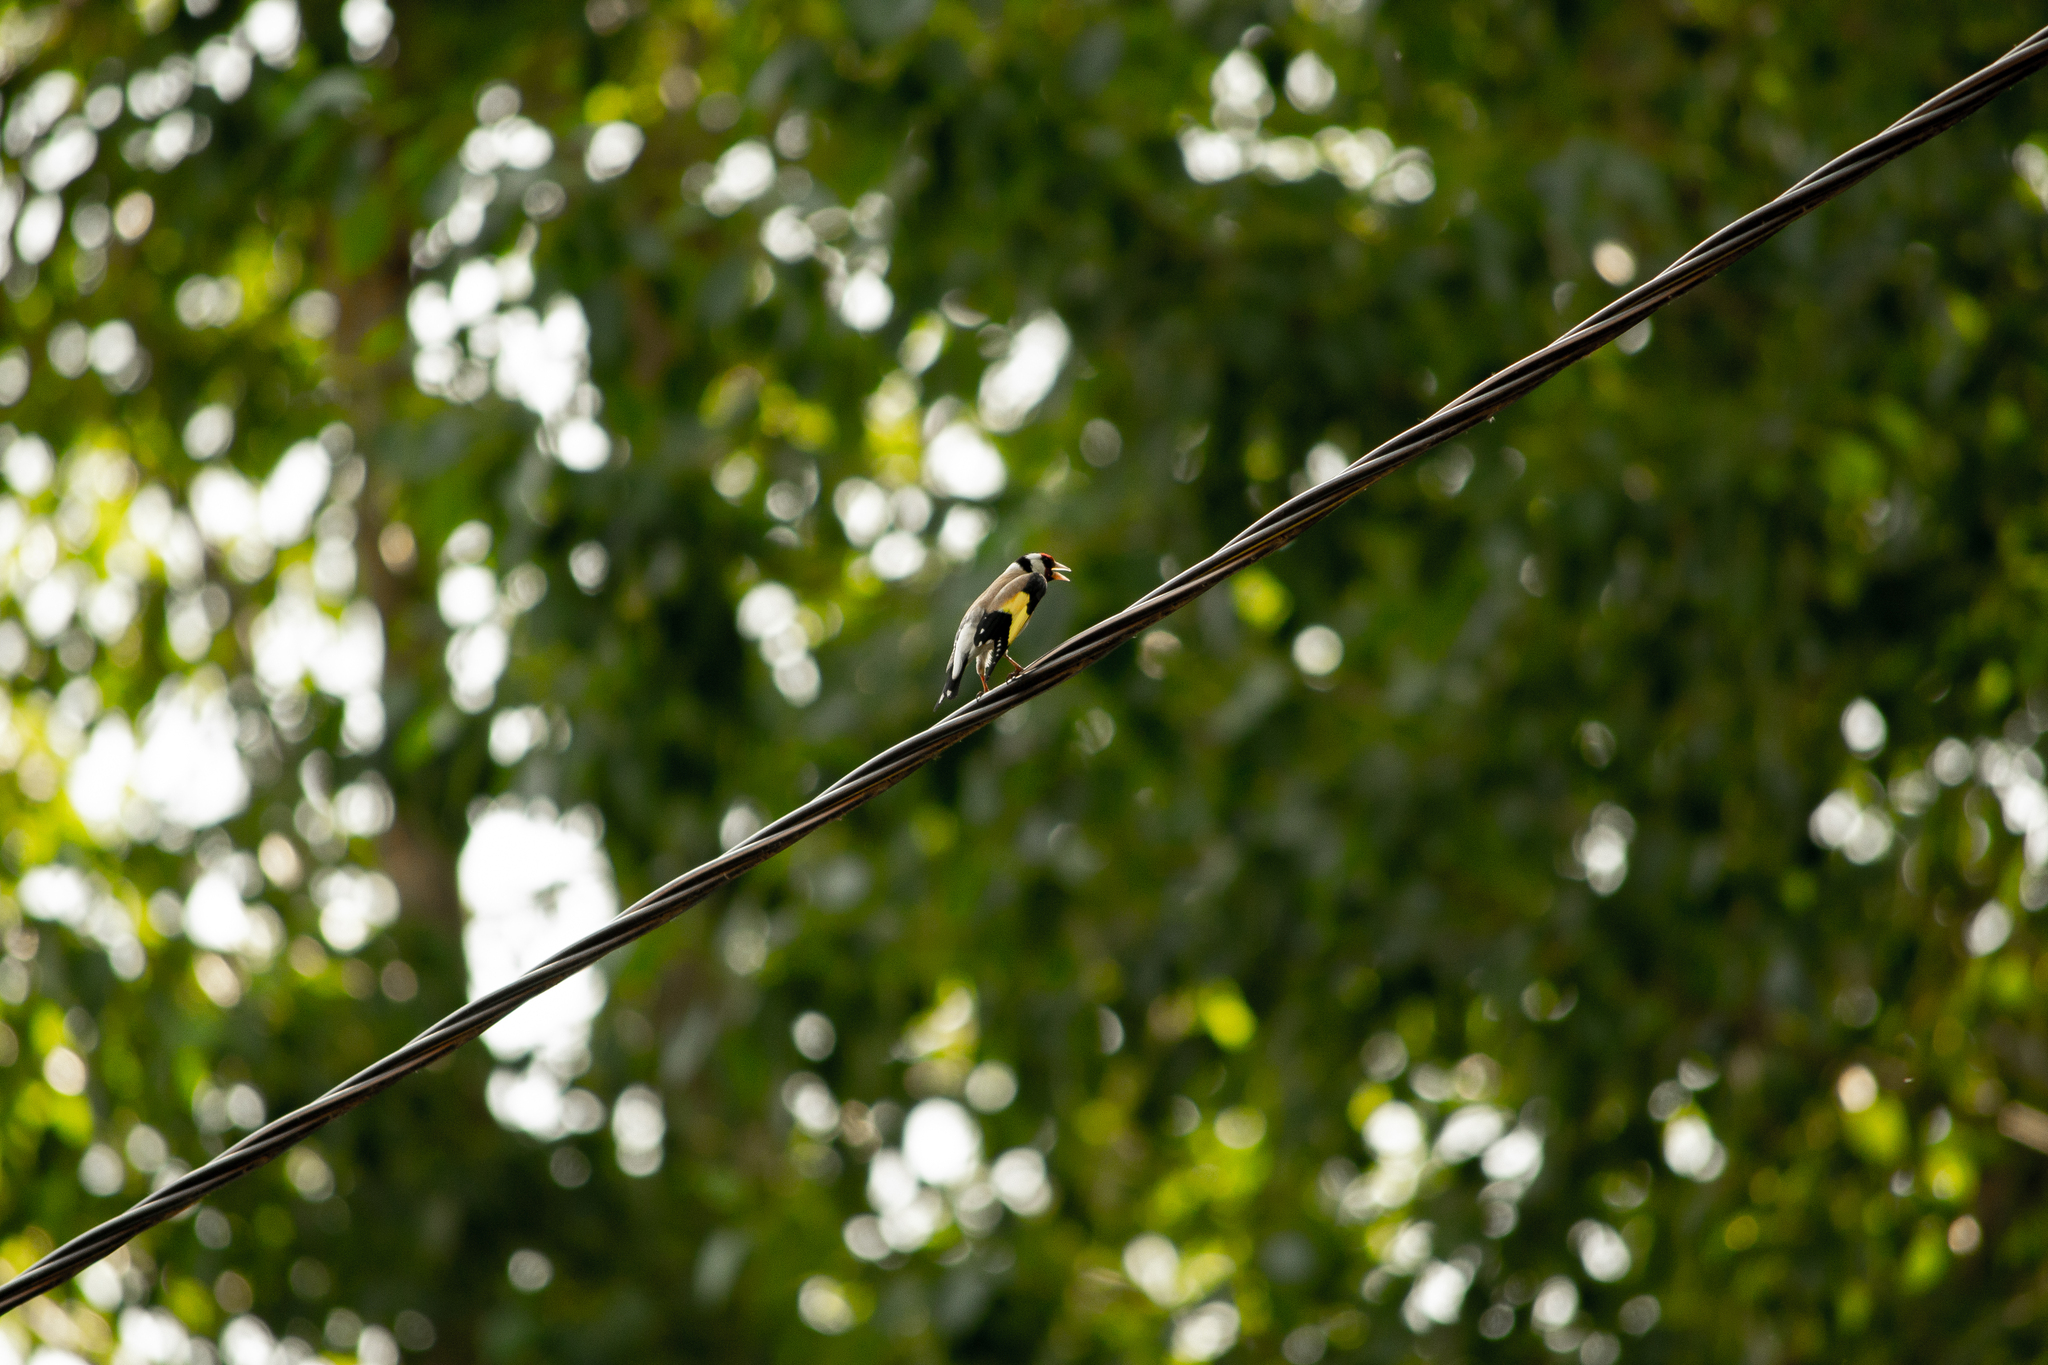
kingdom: Animalia
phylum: Chordata
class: Aves
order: Passeriformes
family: Fringillidae
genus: Carduelis
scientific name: Carduelis carduelis
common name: European goldfinch
